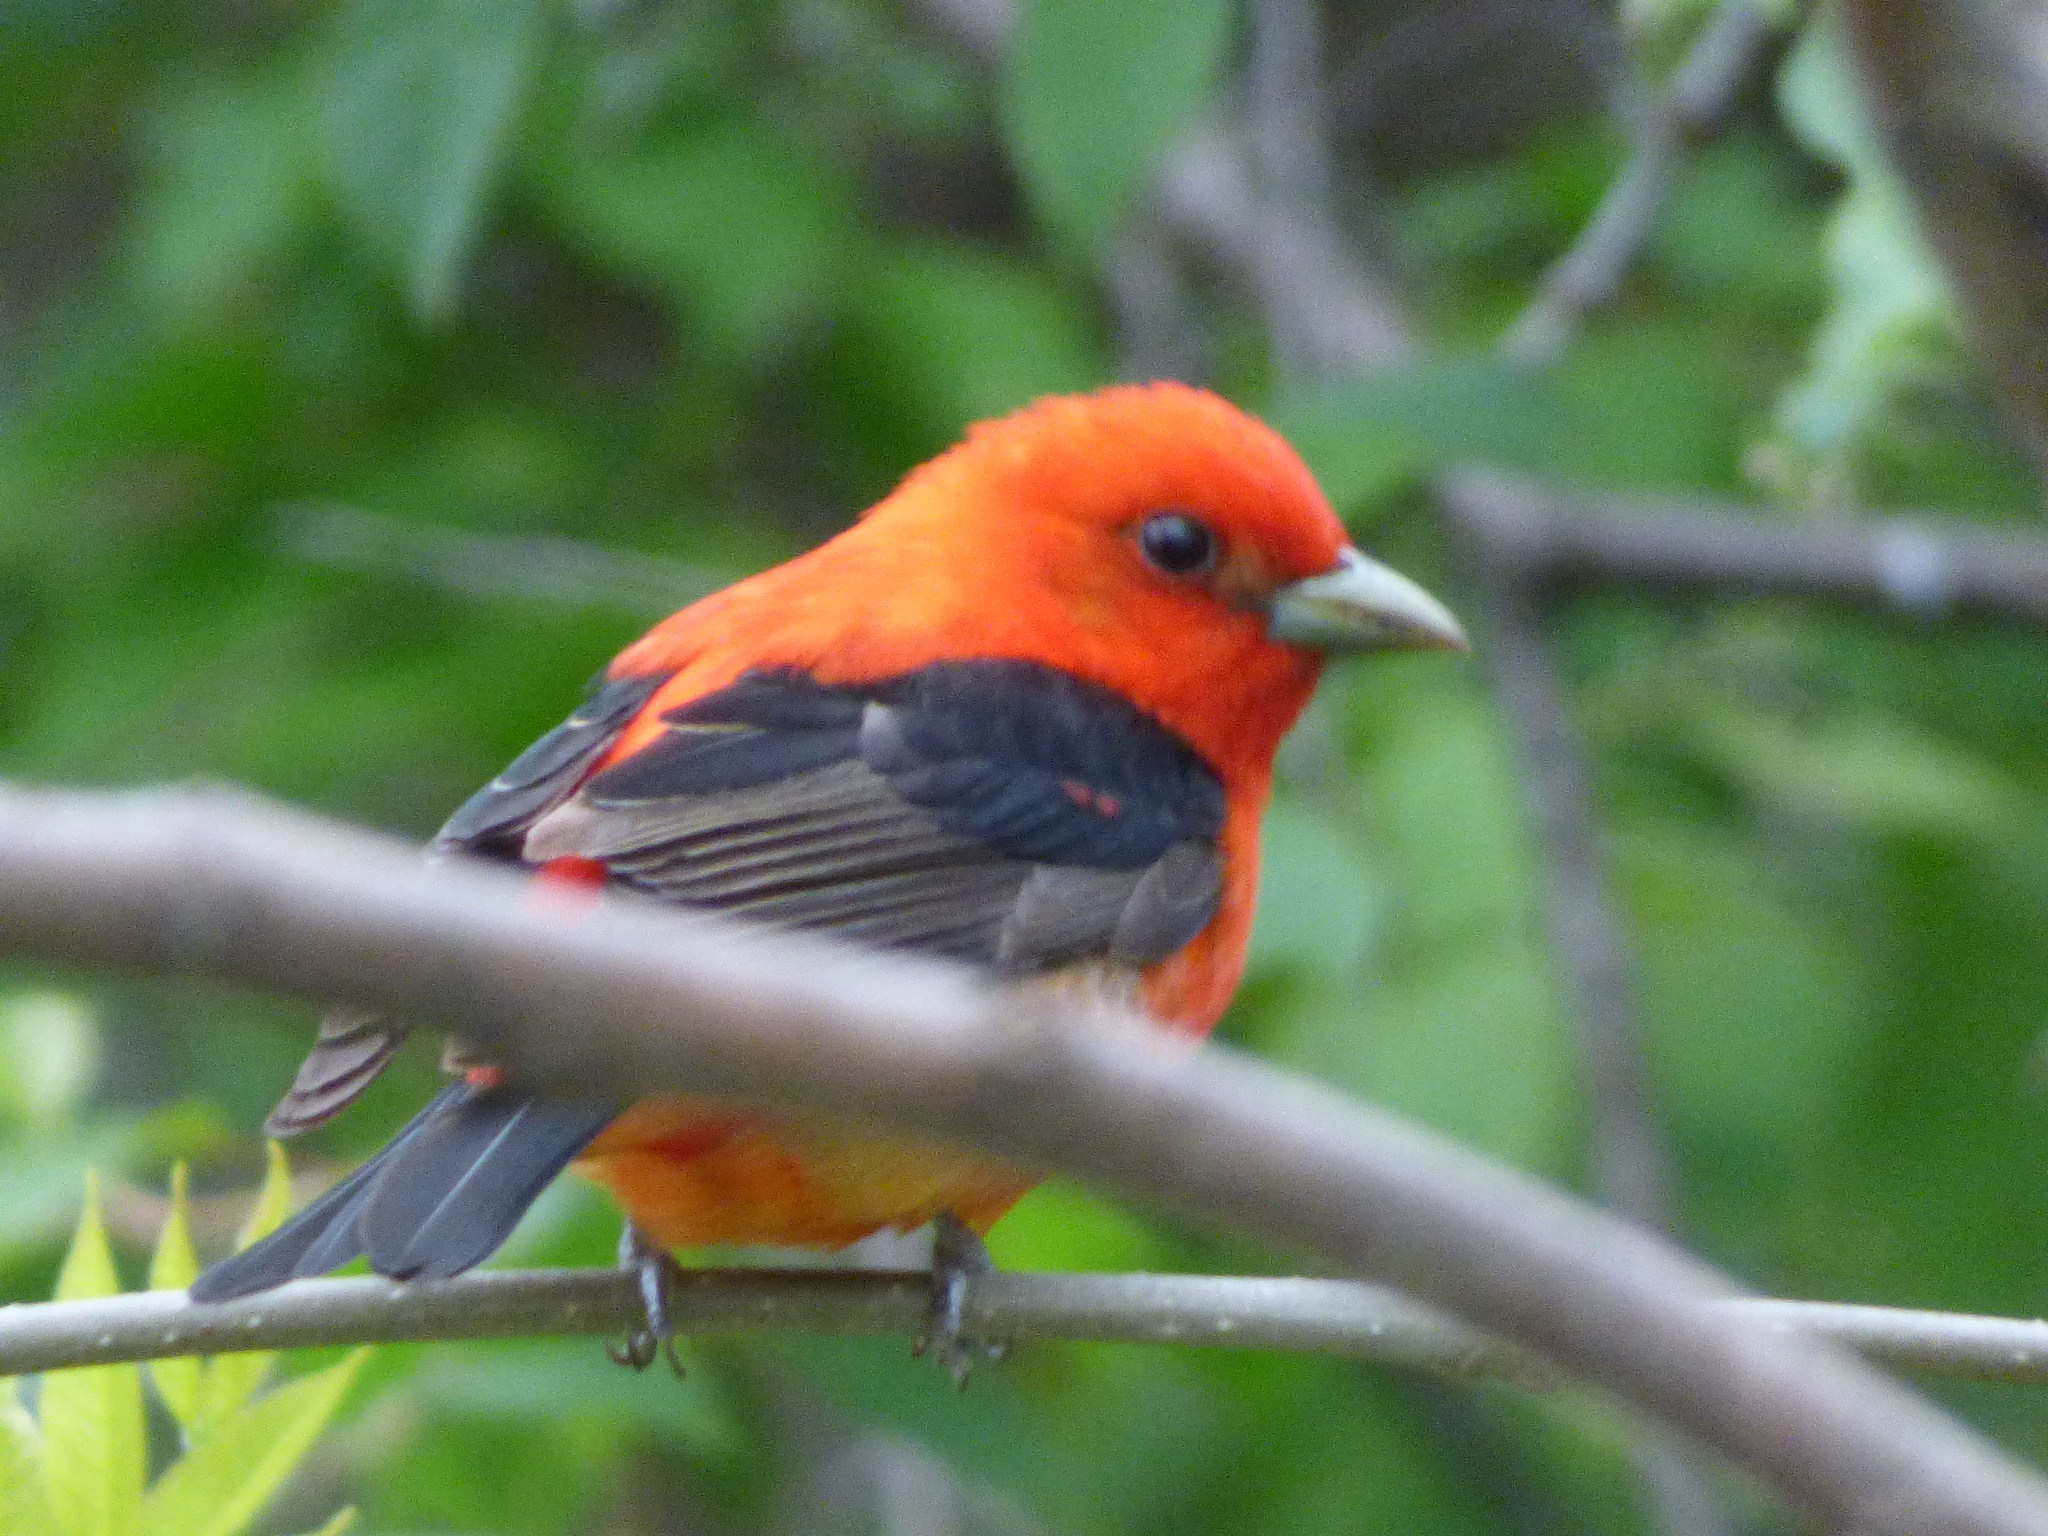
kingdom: Animalia
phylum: Chordata
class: Aves
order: Passeriformes
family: Cardinalidae
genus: Piranga
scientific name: Piranga olivacea
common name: Scarlet tanager
